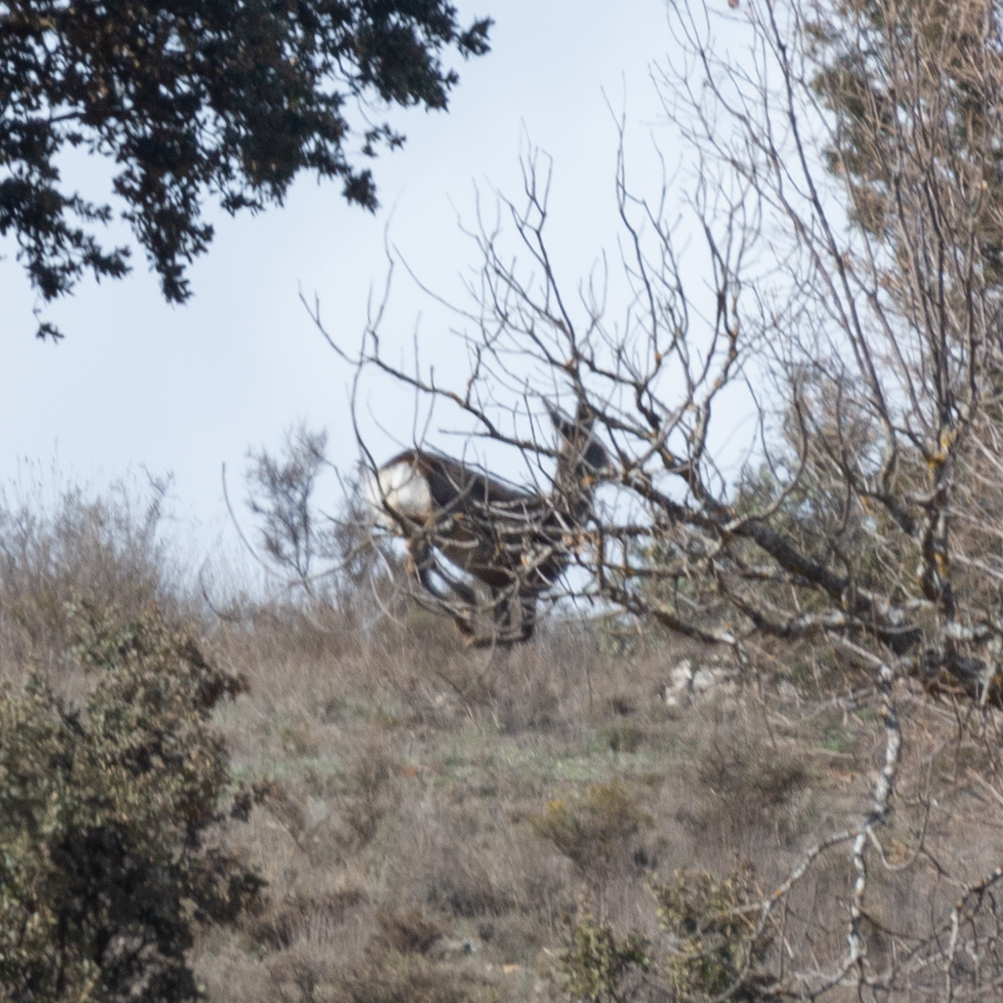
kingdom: Animalia
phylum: Chordata
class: Mammalia
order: Artiodactyla
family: Cervidae
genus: Capreolus
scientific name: Capreolus capreolus
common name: Western roe deer
